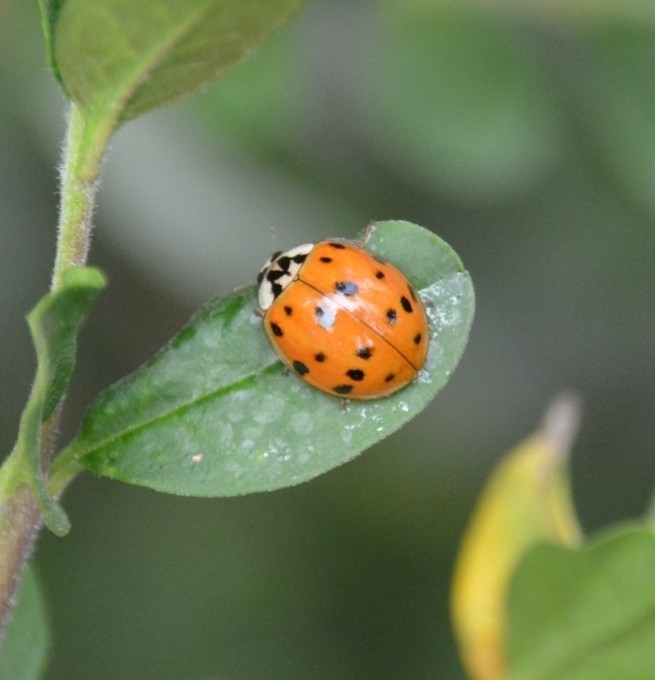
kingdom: Animalia
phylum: Arthropoda
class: Insecta
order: Coleoptera
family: Coccinellidae
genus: Harmonia
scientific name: Harmonia axyridis
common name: Harlequin ladybird
